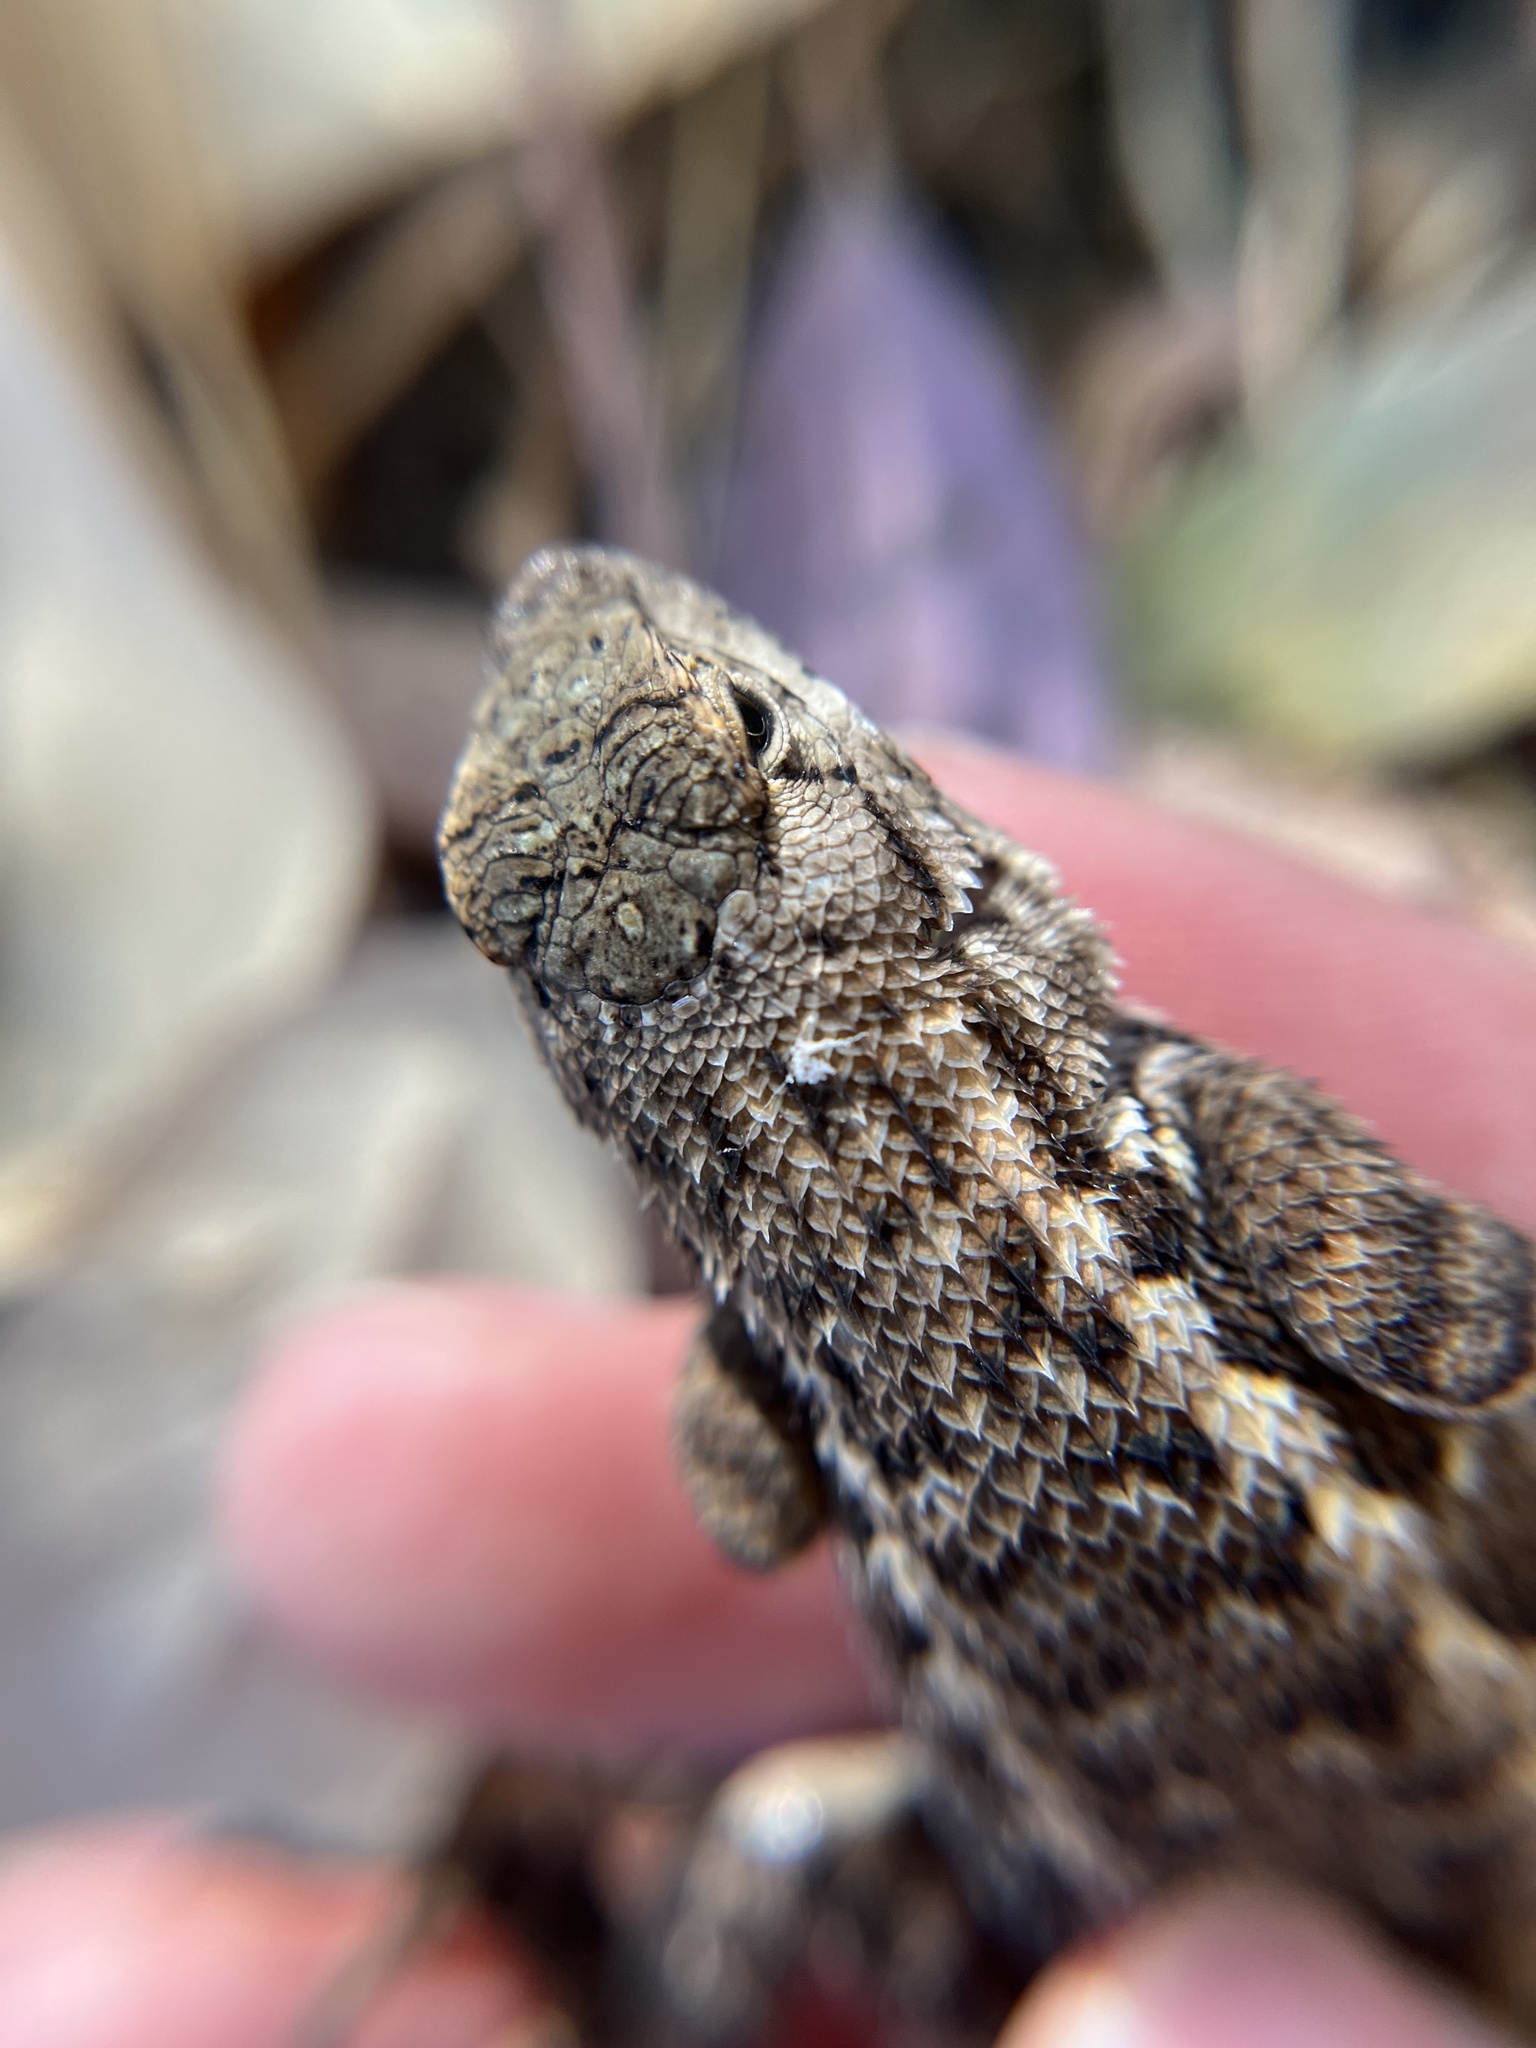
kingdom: Animalia
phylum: Chordata
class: Squamata
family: Phrynosomatidae
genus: Sceloporus
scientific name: Sceloporus occidentalis
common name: Western fence lizard
